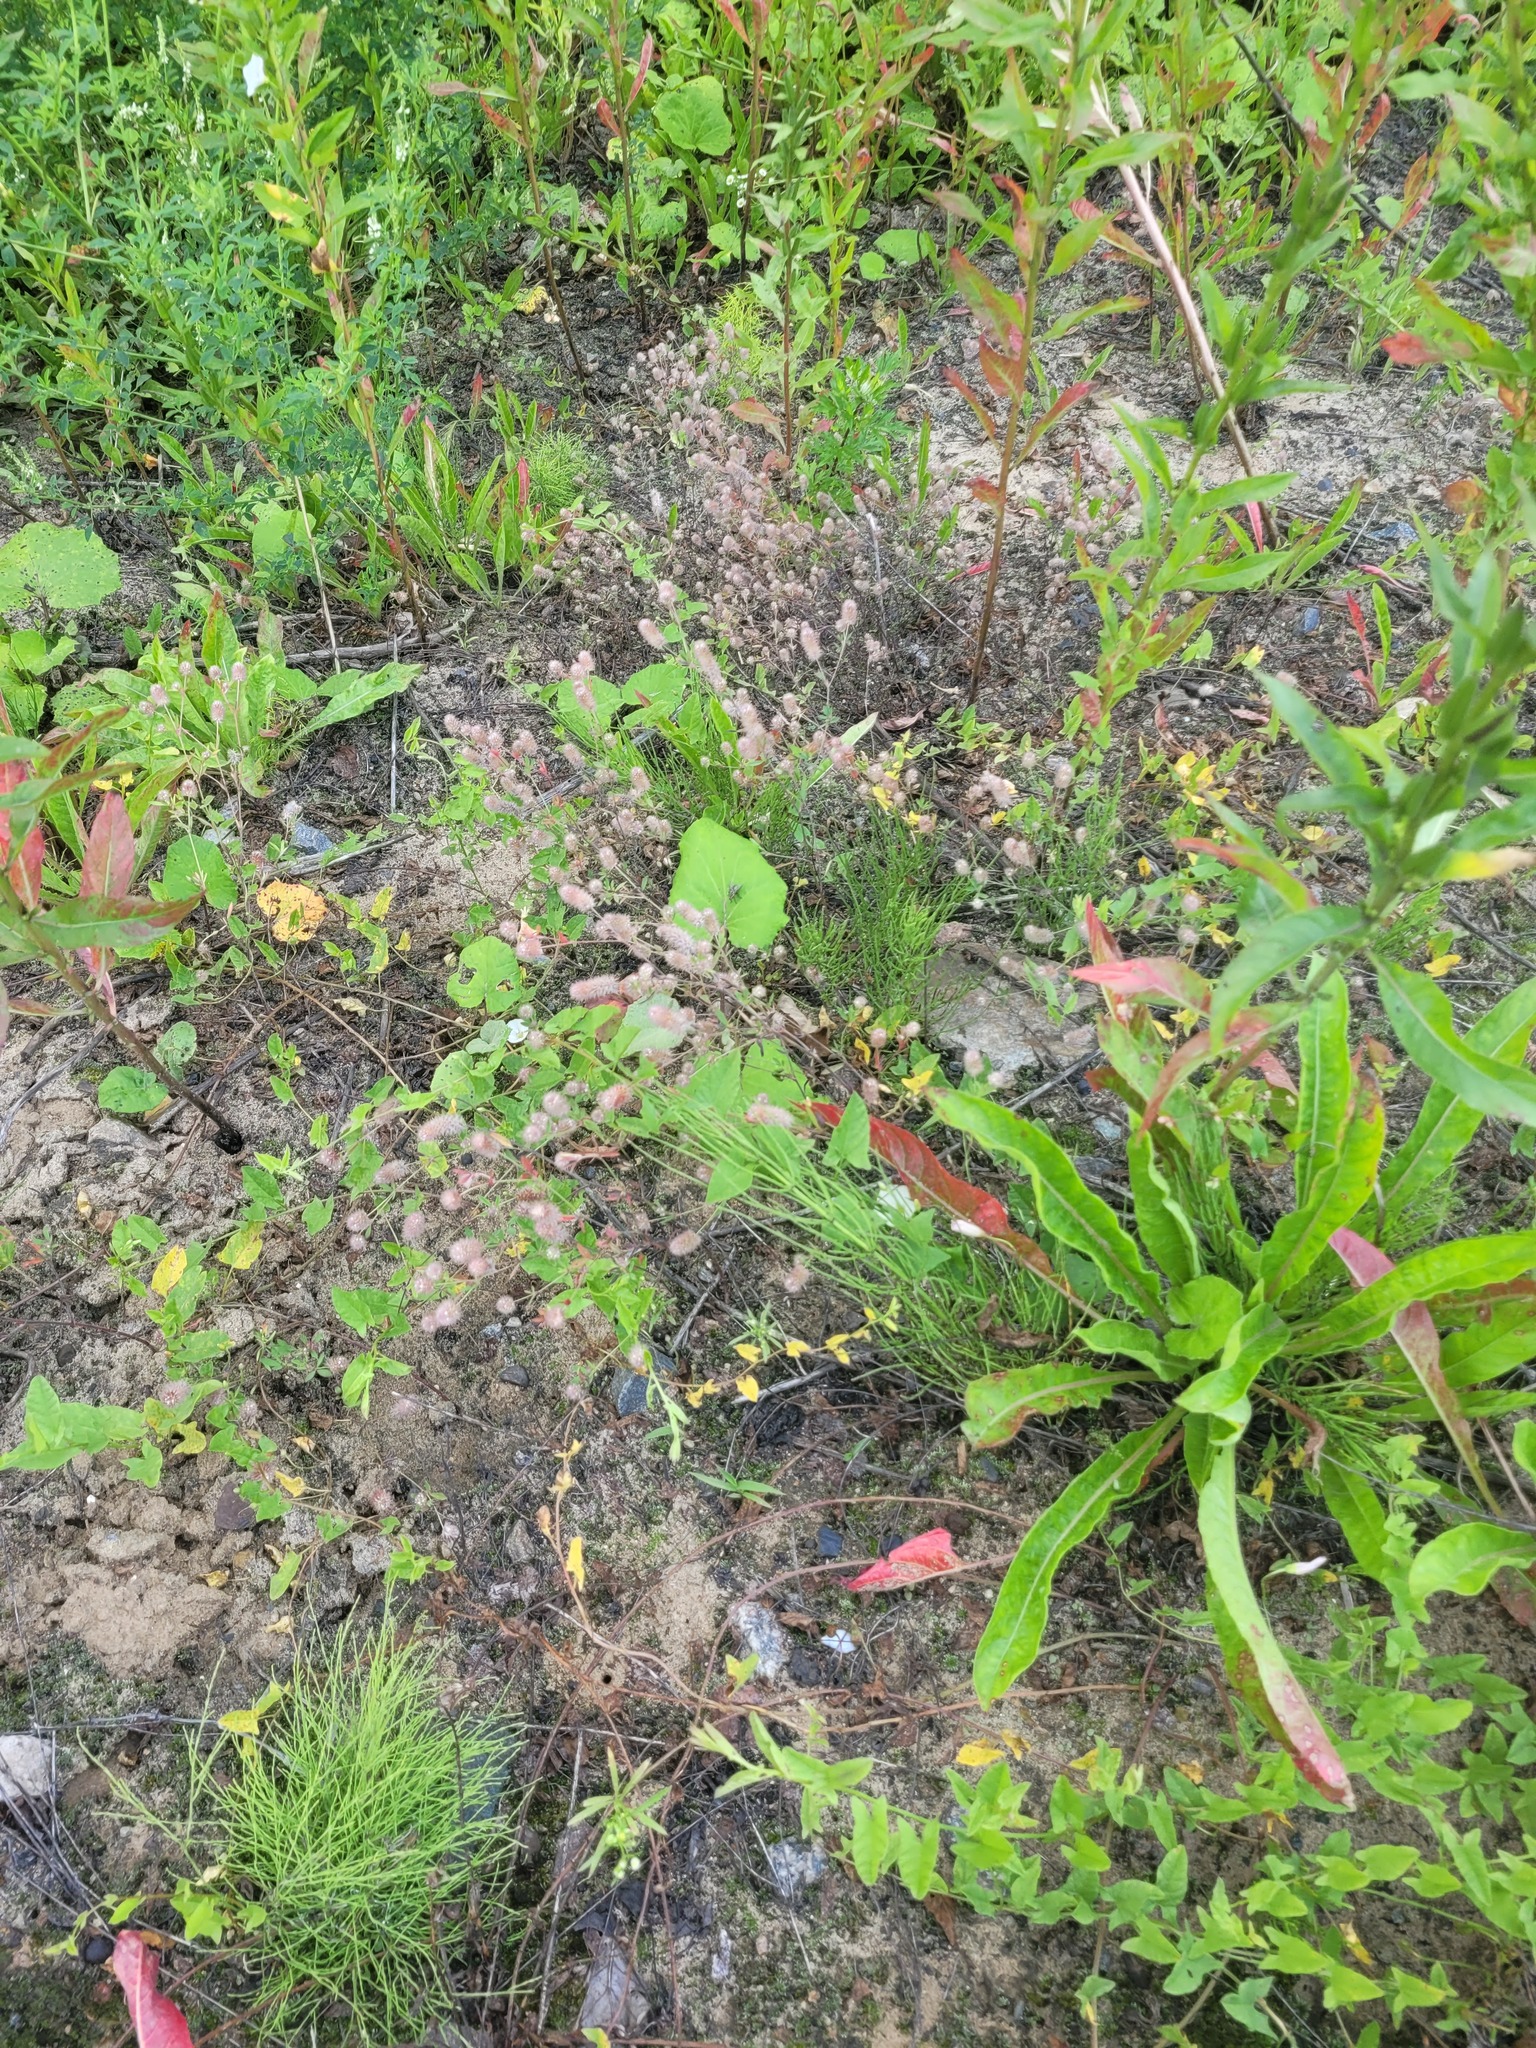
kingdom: Plantae
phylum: Tracheophyta
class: Magnoliopsida
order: Fabales
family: Fabaceae
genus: Trifolium
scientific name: Trifolium arvense
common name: Hare's-foot clover
